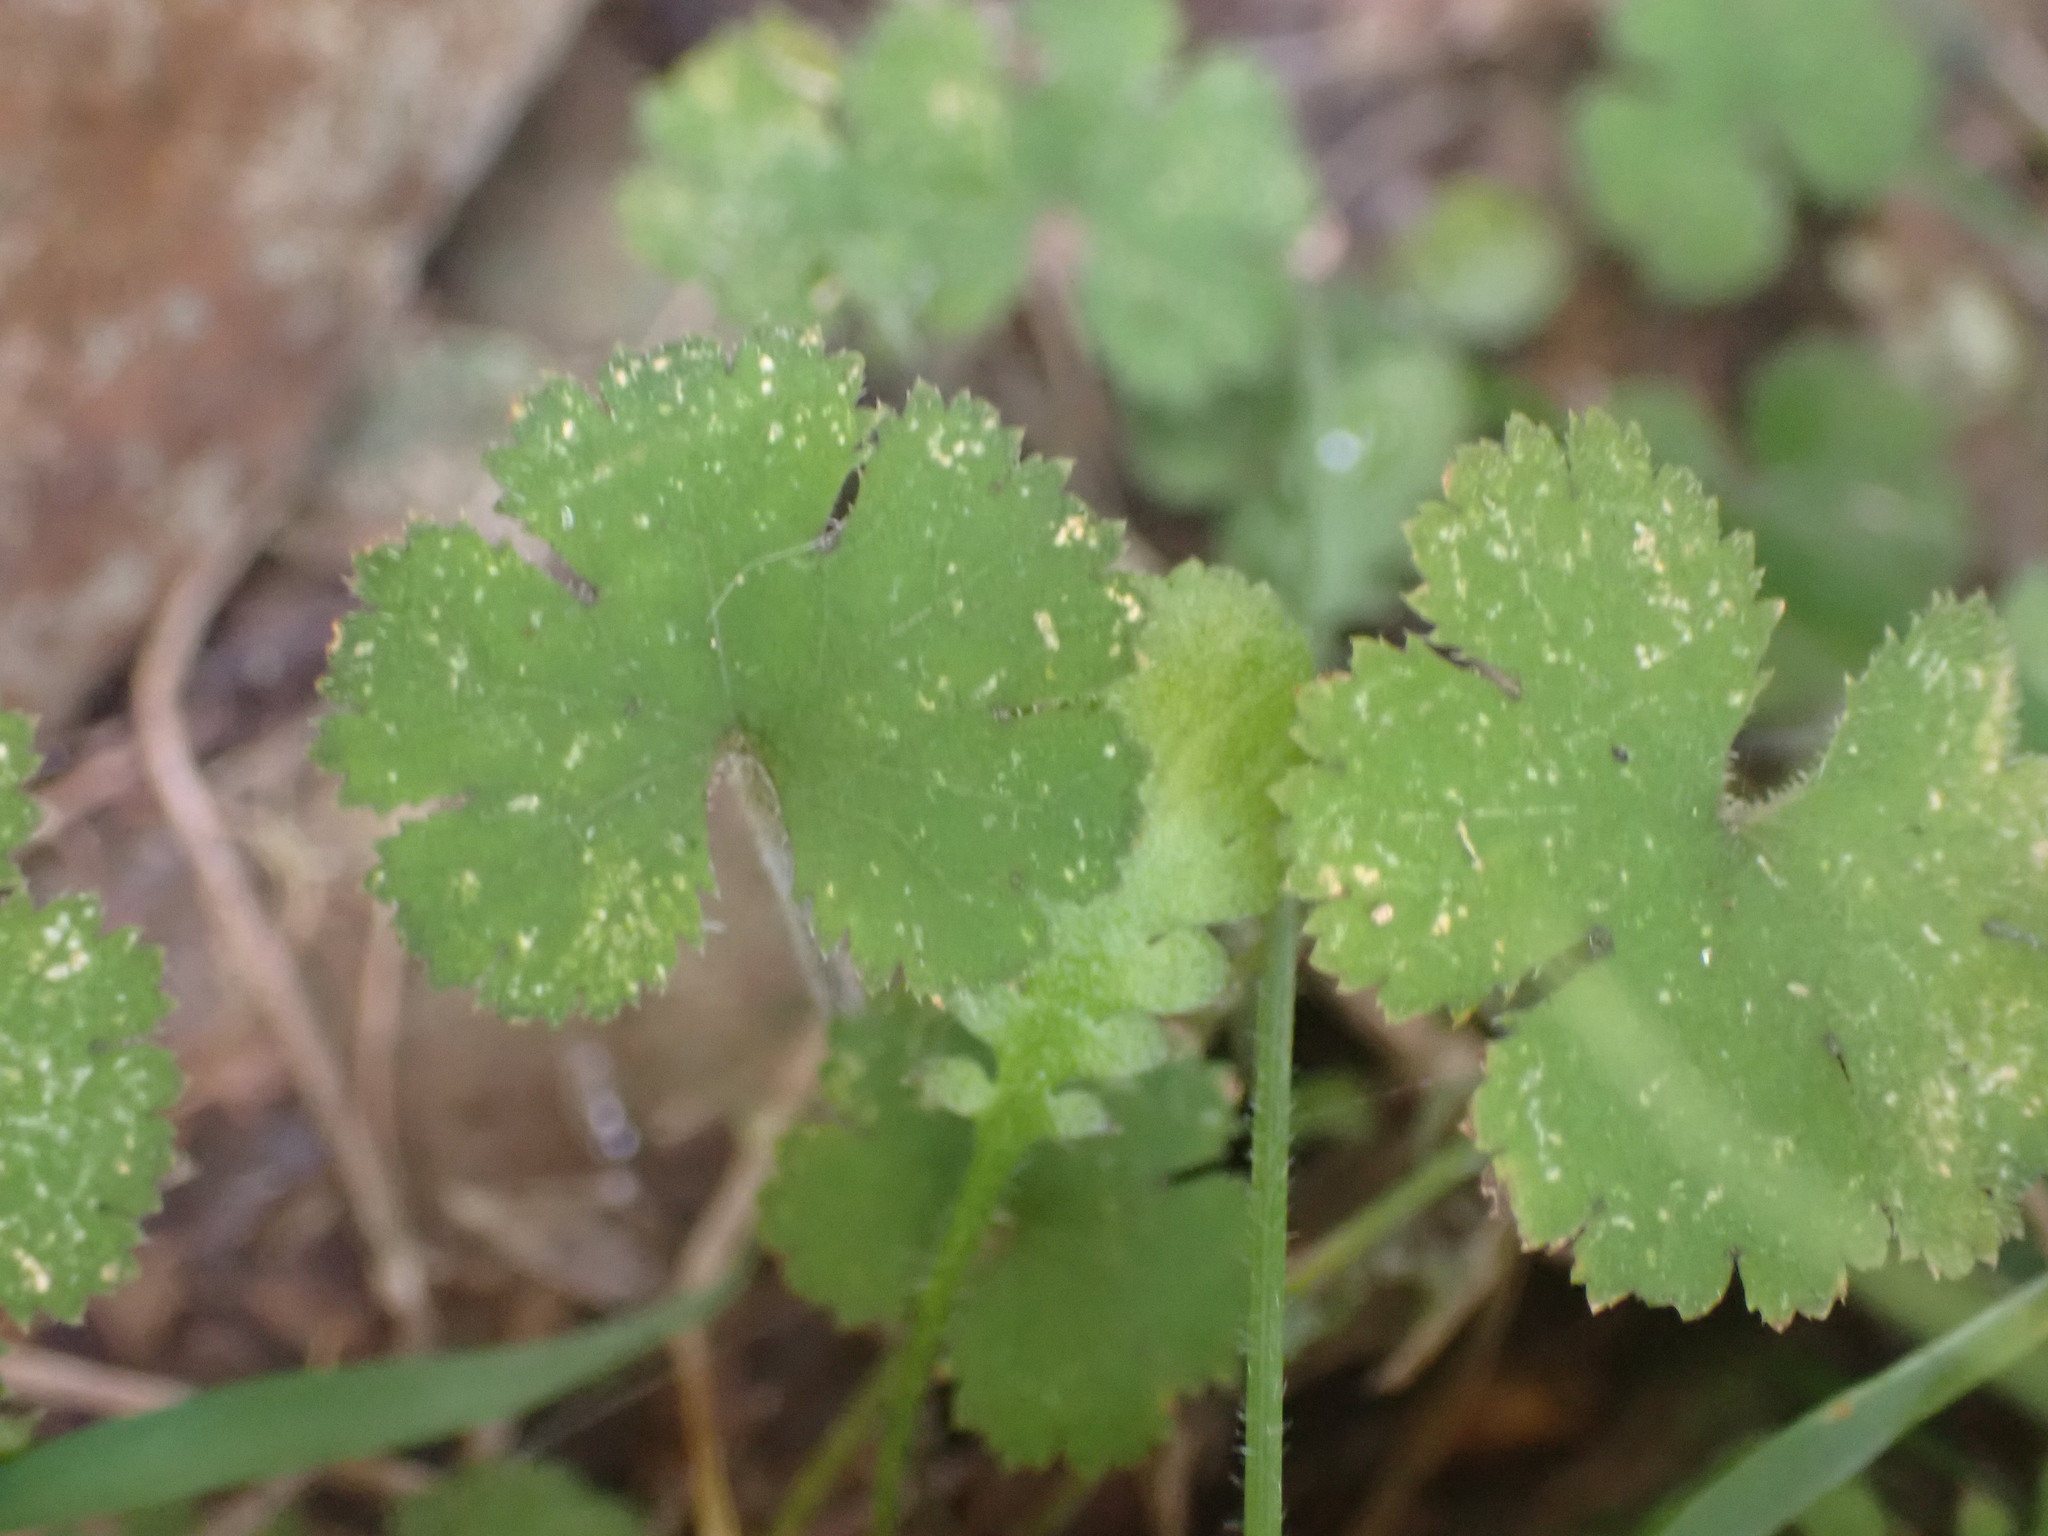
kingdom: Plantae
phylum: Tracheophyta
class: Magnoliopsida
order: Apiales
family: Araliaceae
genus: Hydrocotyle
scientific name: Hydrocotyle elongata
